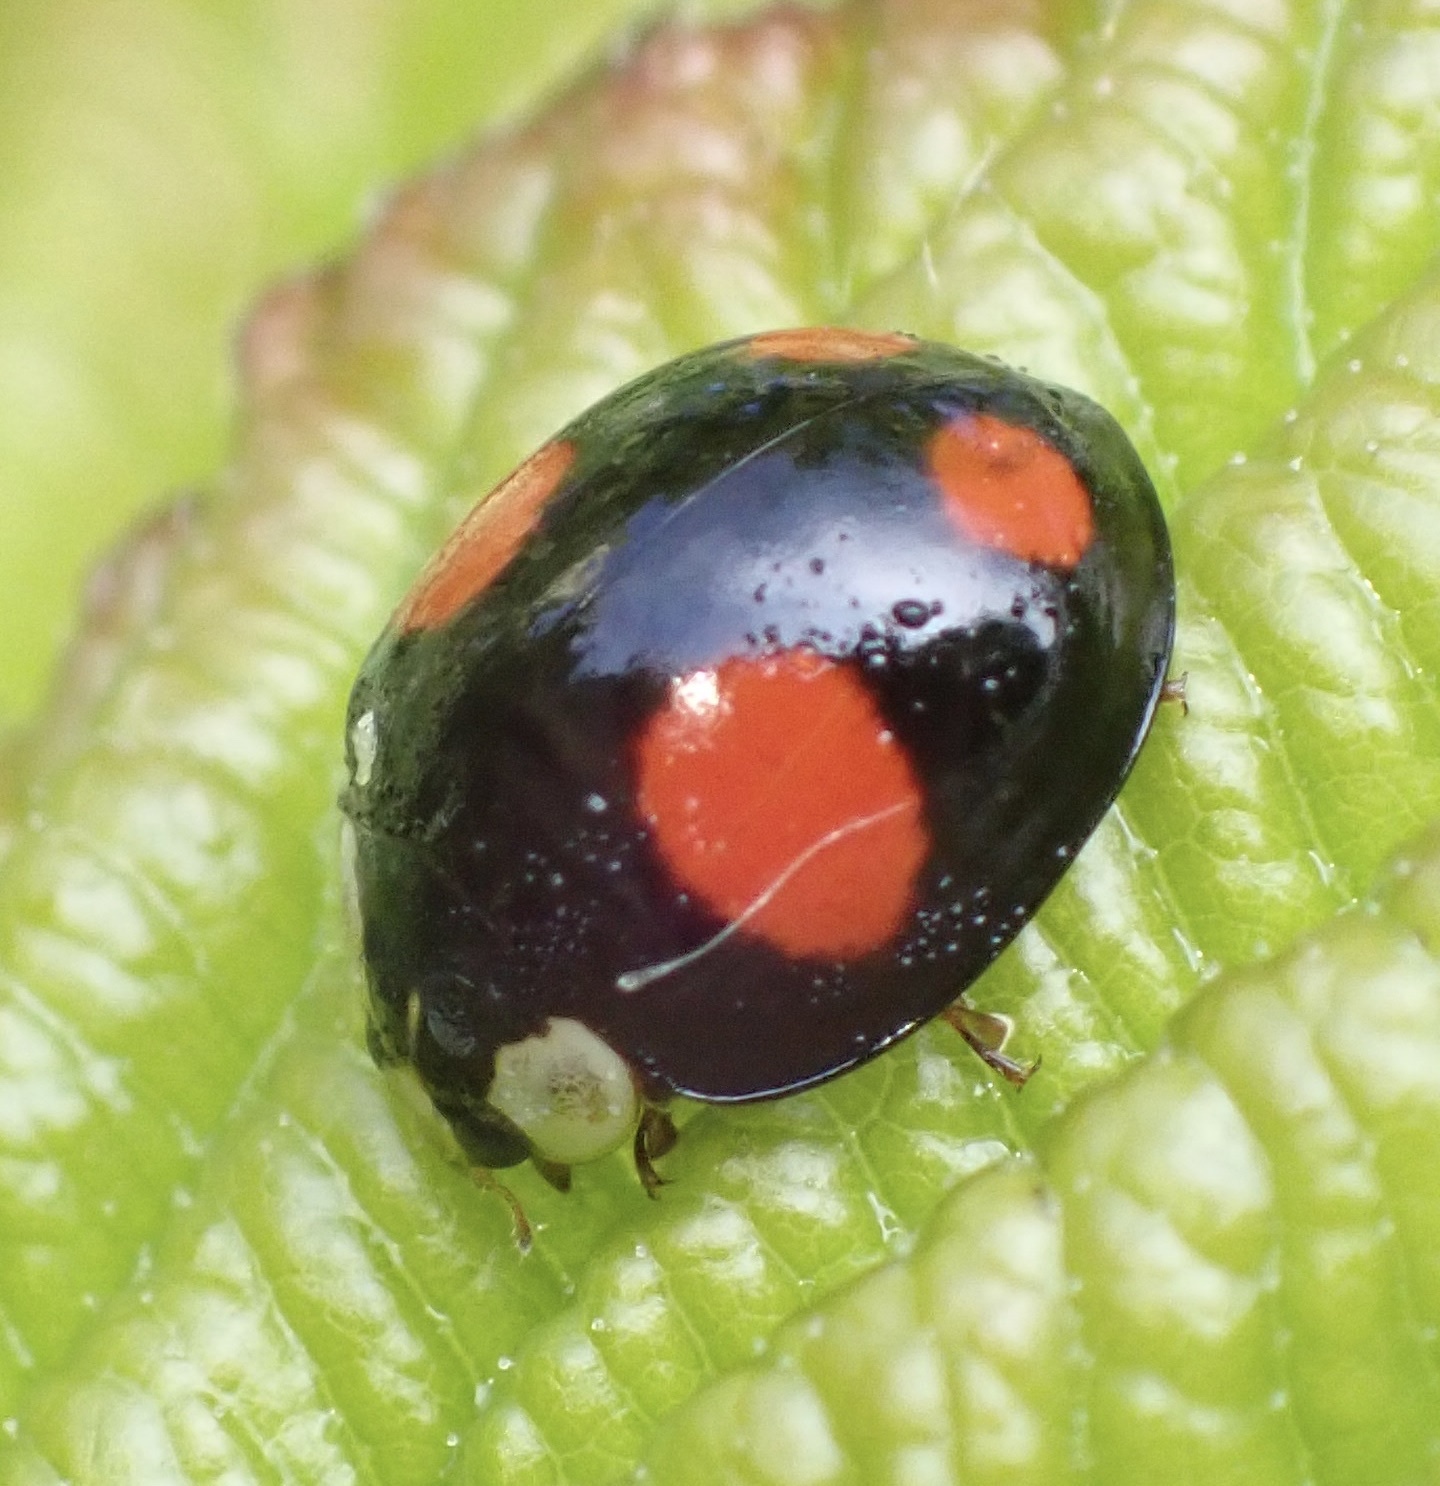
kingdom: Animalia
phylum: Arthropoda
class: Insecta
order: Coleoptera
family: Coccinellidae
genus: Harmonia
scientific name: Harmonia axyridis
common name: Harlequin ladybird
